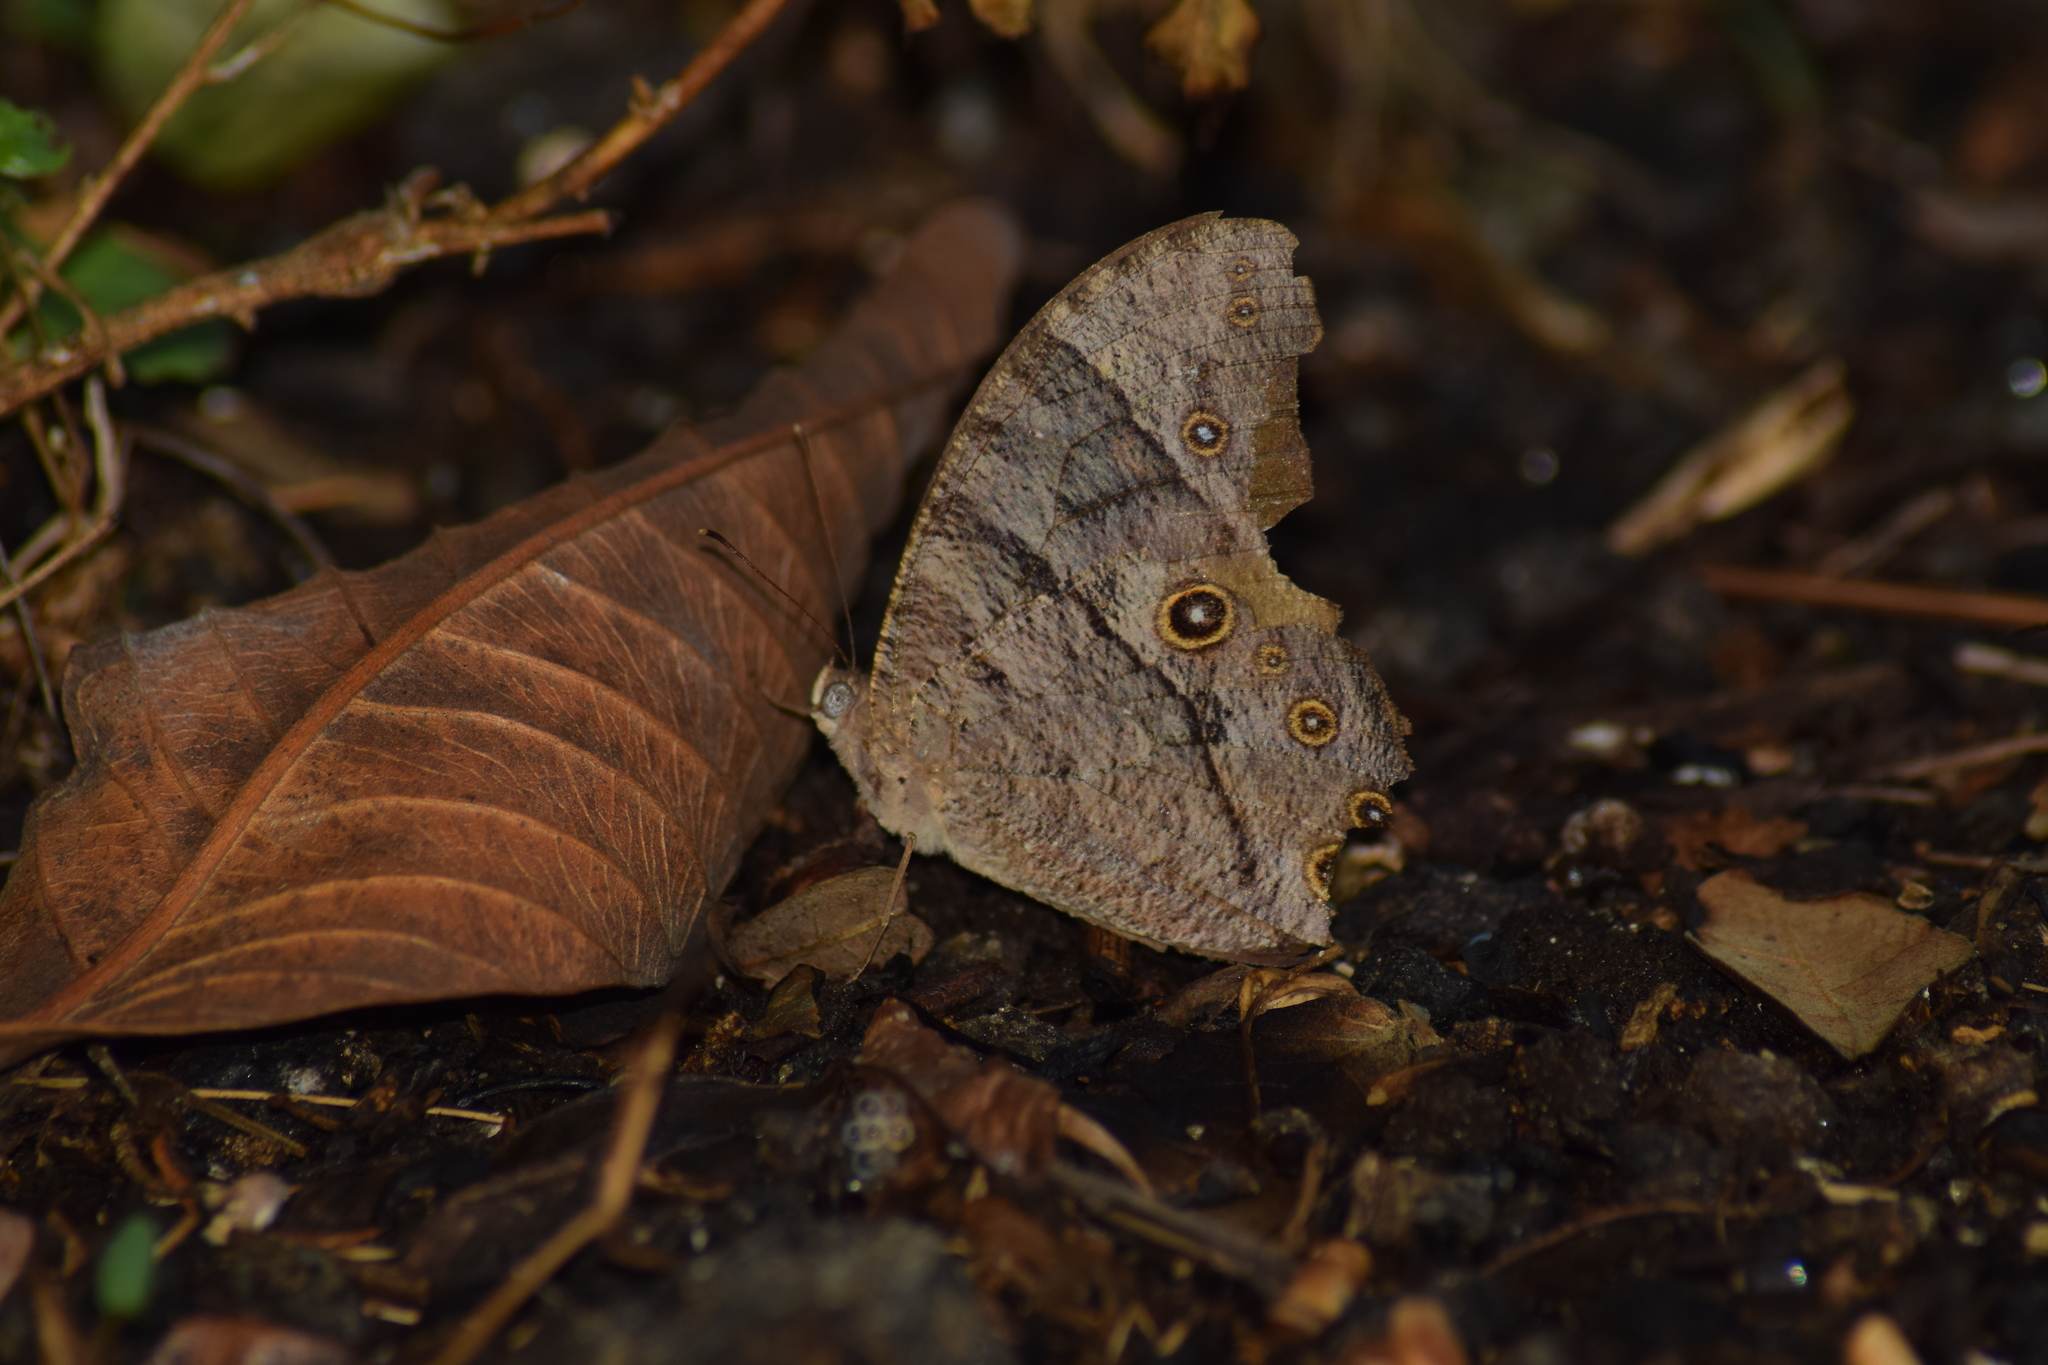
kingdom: Animalia
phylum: Arthropoda
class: Insecta
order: Lepidoptera
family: Nymphalidae
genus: Melanitis
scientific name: Melanitis leda
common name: Twilight brown
